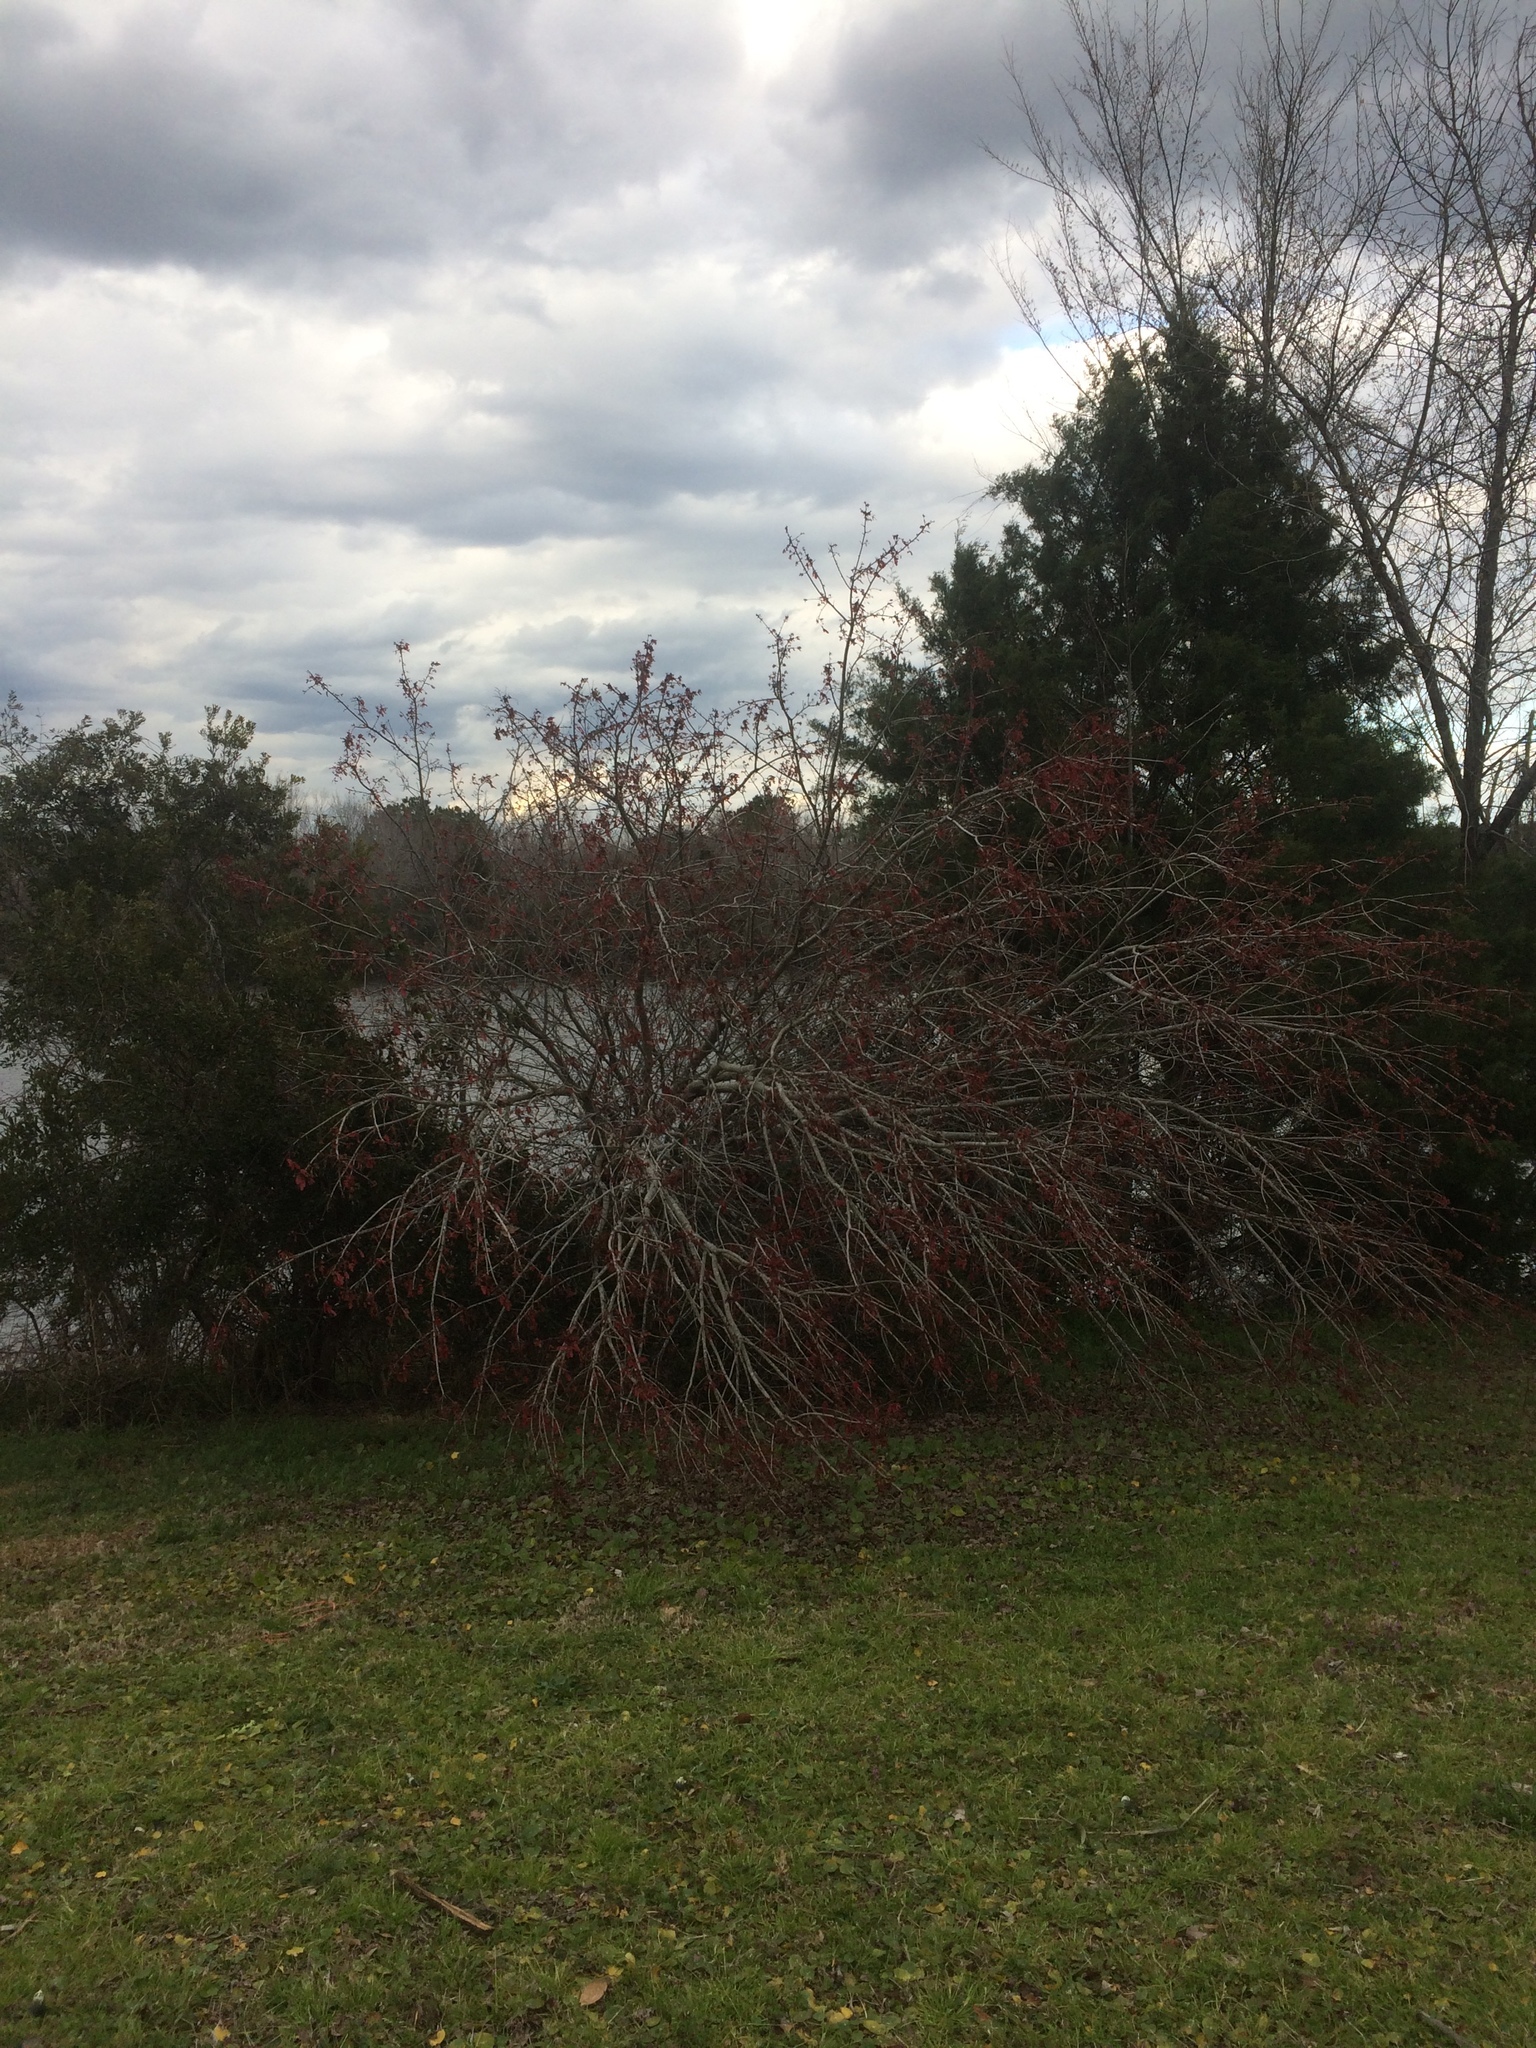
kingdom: Plantae
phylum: Tracheophyta
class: Magnoliopsida
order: Sapindales
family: Sapindaceae
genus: Acer
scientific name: Acer rubrum
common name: Red maple
